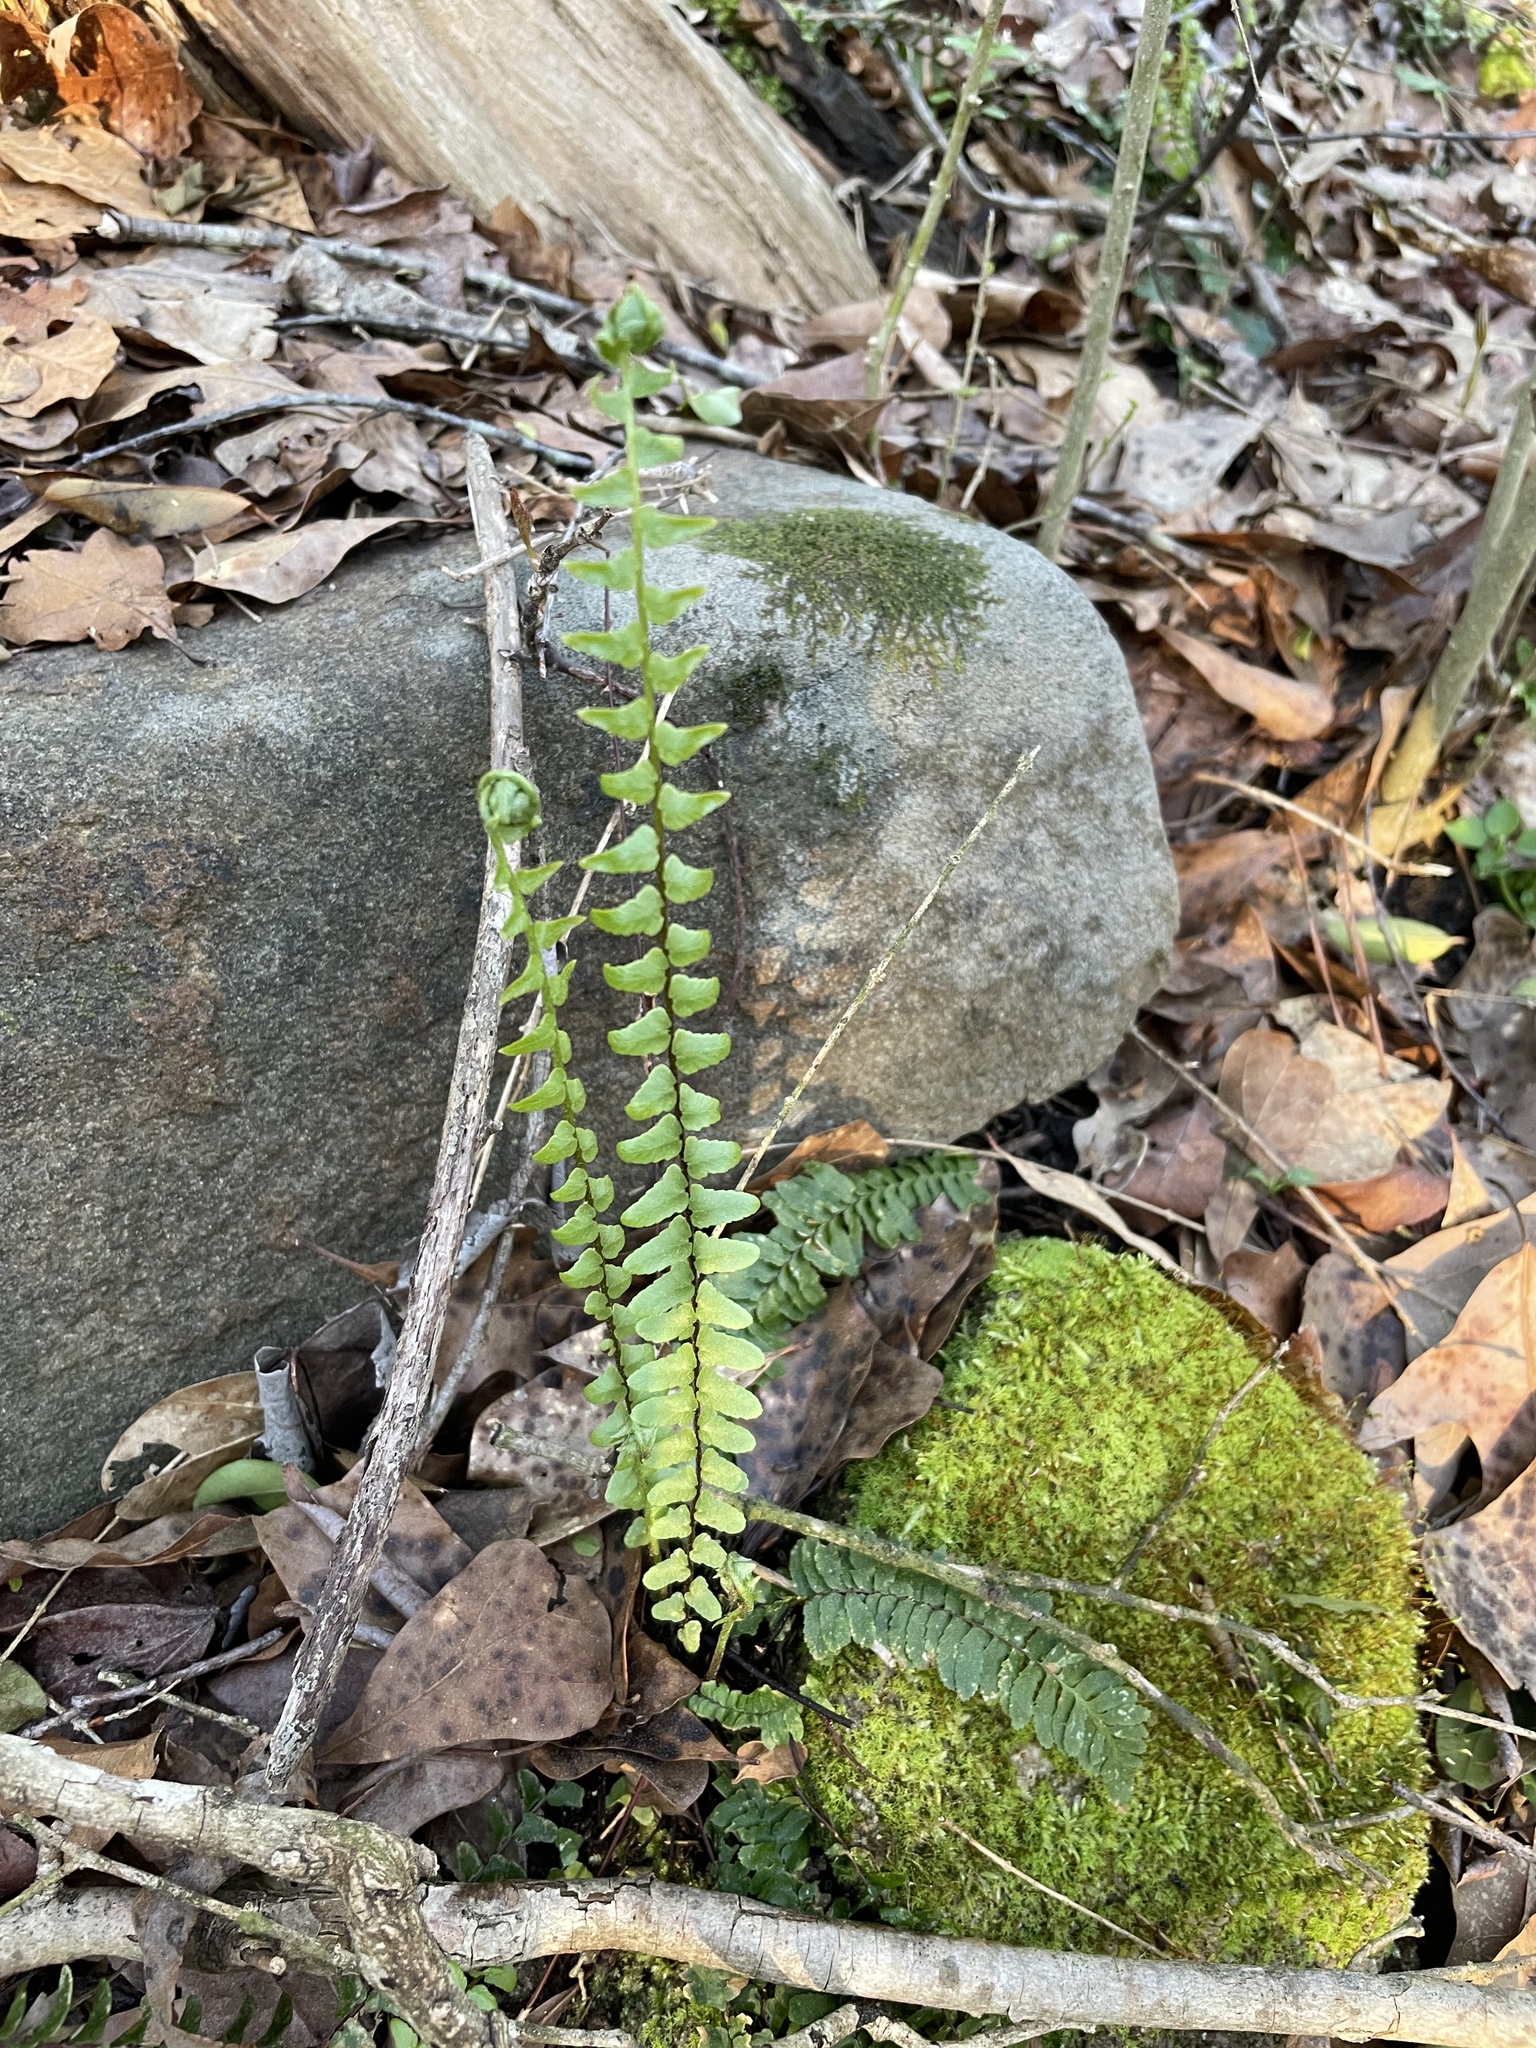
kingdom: Plantae
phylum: Tracheophyta
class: Polypodiopsida
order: Polypodiales
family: Aspleniaceae
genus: Asplenium
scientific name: Asplenium platyneuron
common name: Ebony spleenwort
